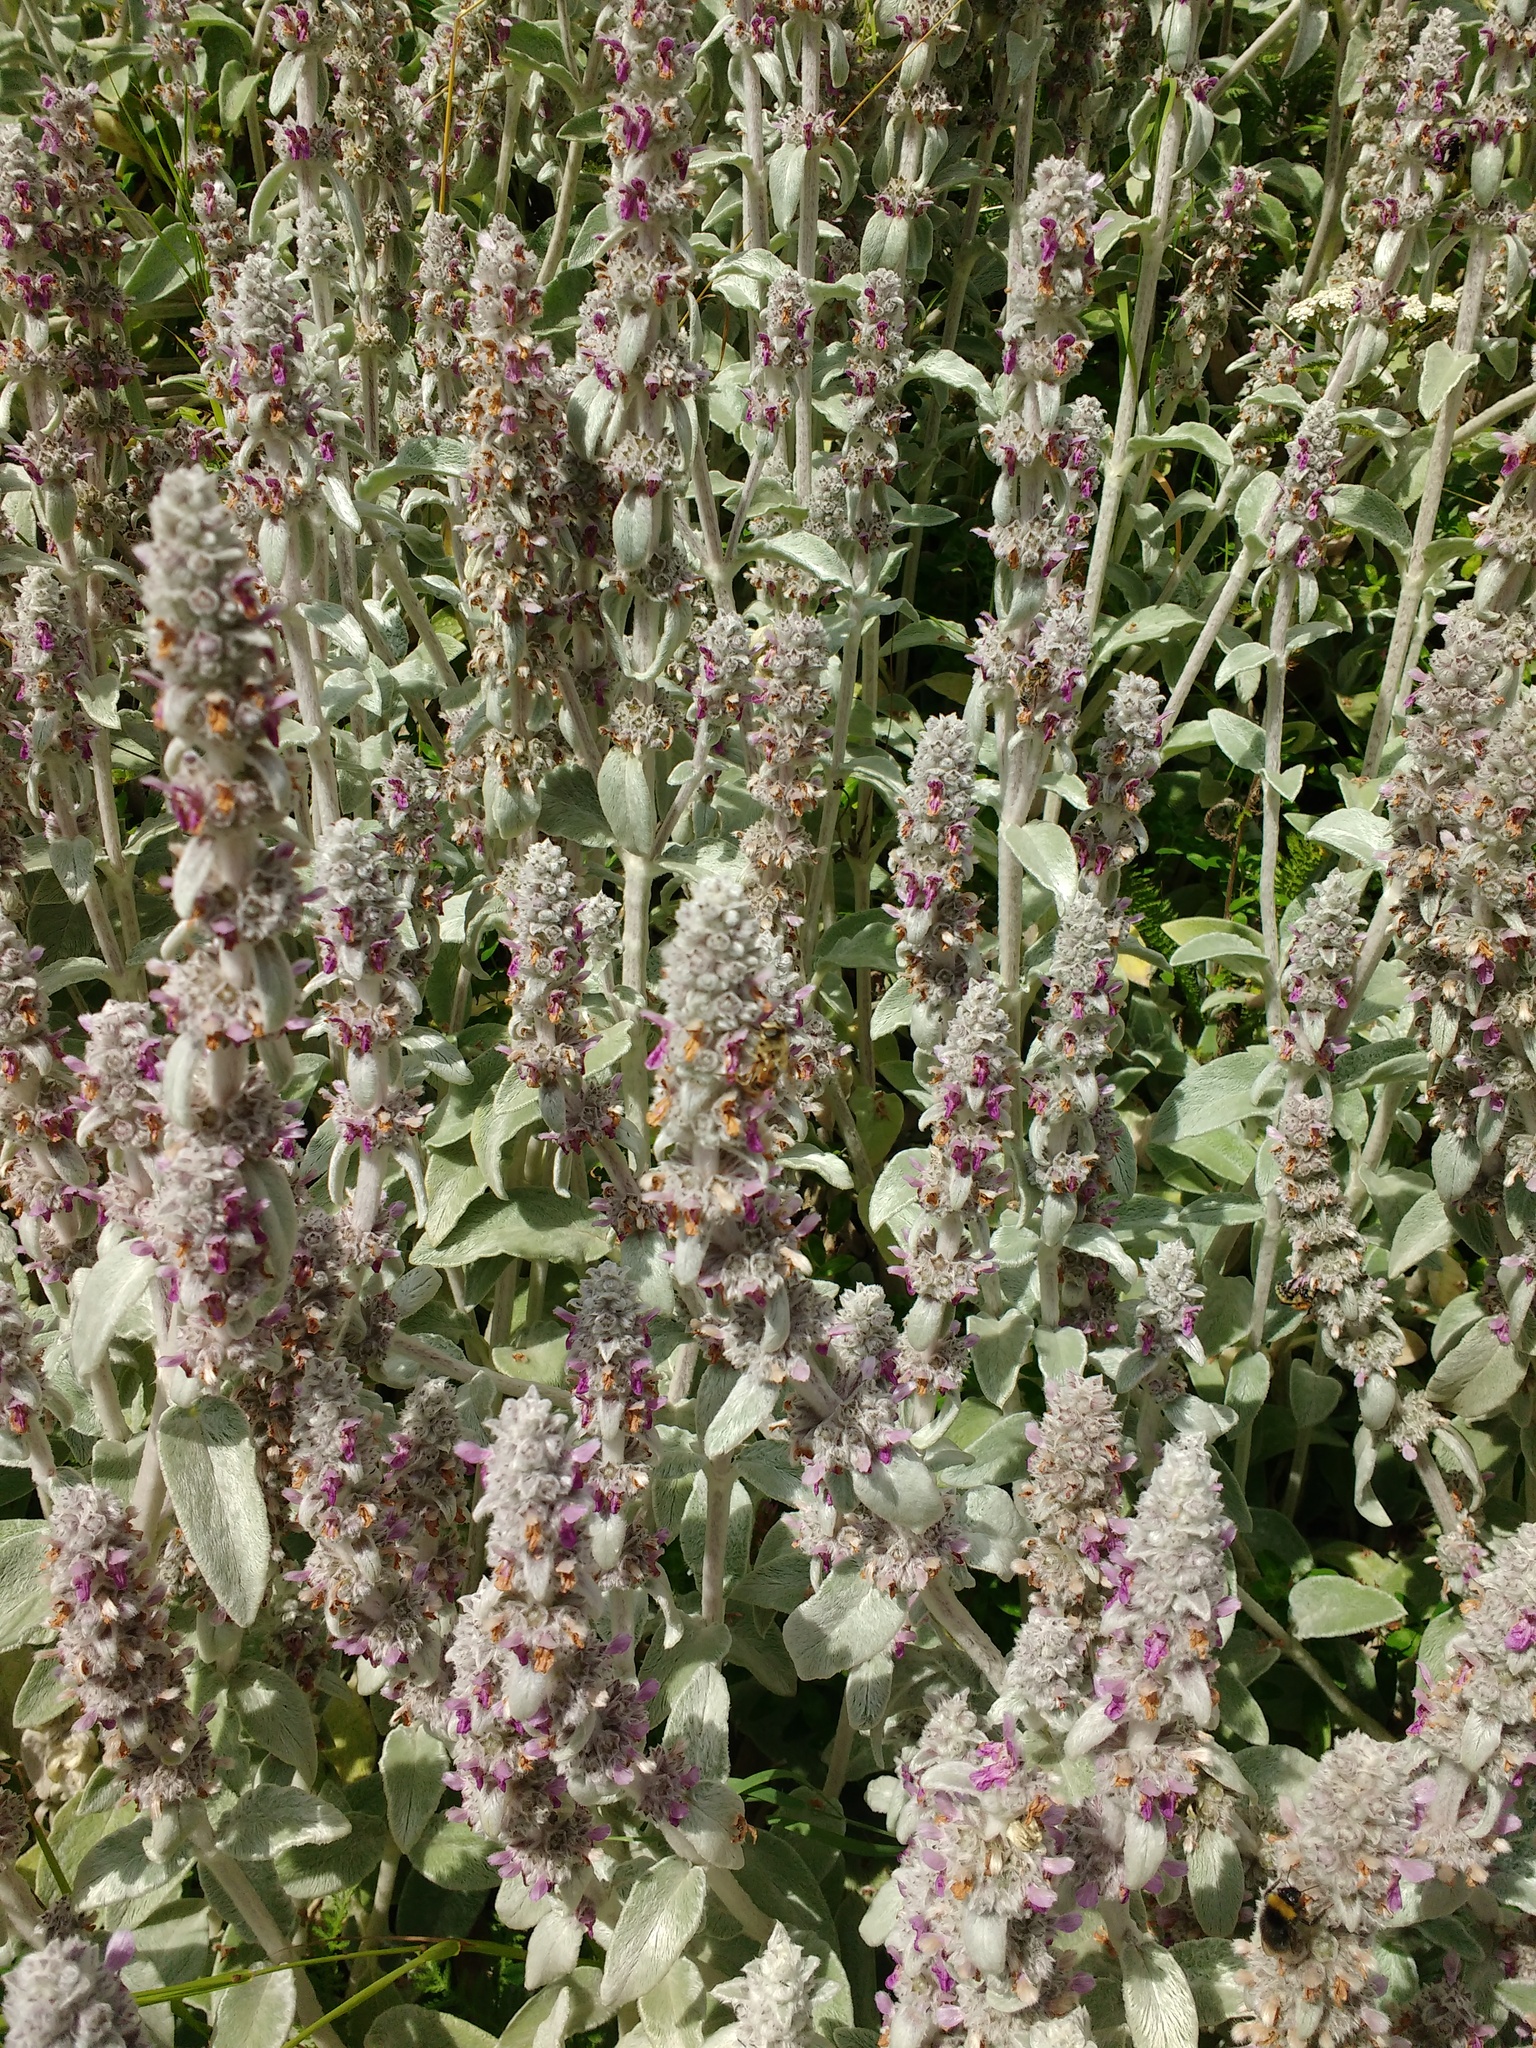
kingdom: Plantae
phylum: Tracheophyta
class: Magnoliopsida
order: Lamiales
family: Lamiaceae
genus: Stachys
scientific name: Stachys byzantina
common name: Lamb's-ear
